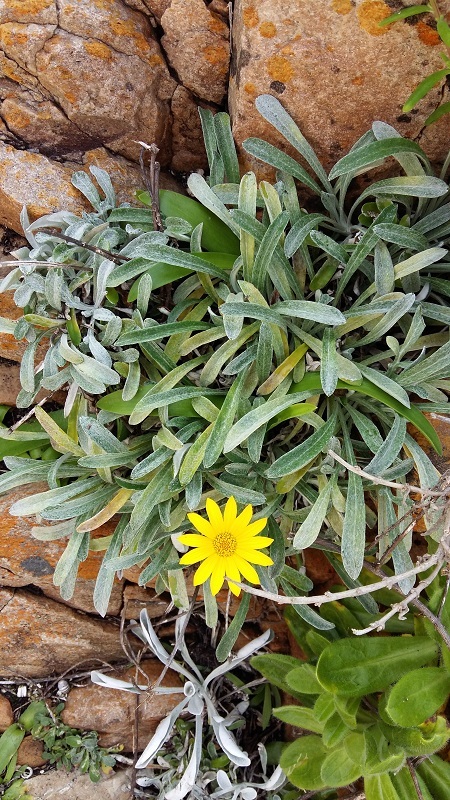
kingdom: Plantae
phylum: Tracheophyta
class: Magnoliopsida
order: Asterales
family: Asteraceae
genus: Gazania
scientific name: Gazania rigens
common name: Treasureflower
